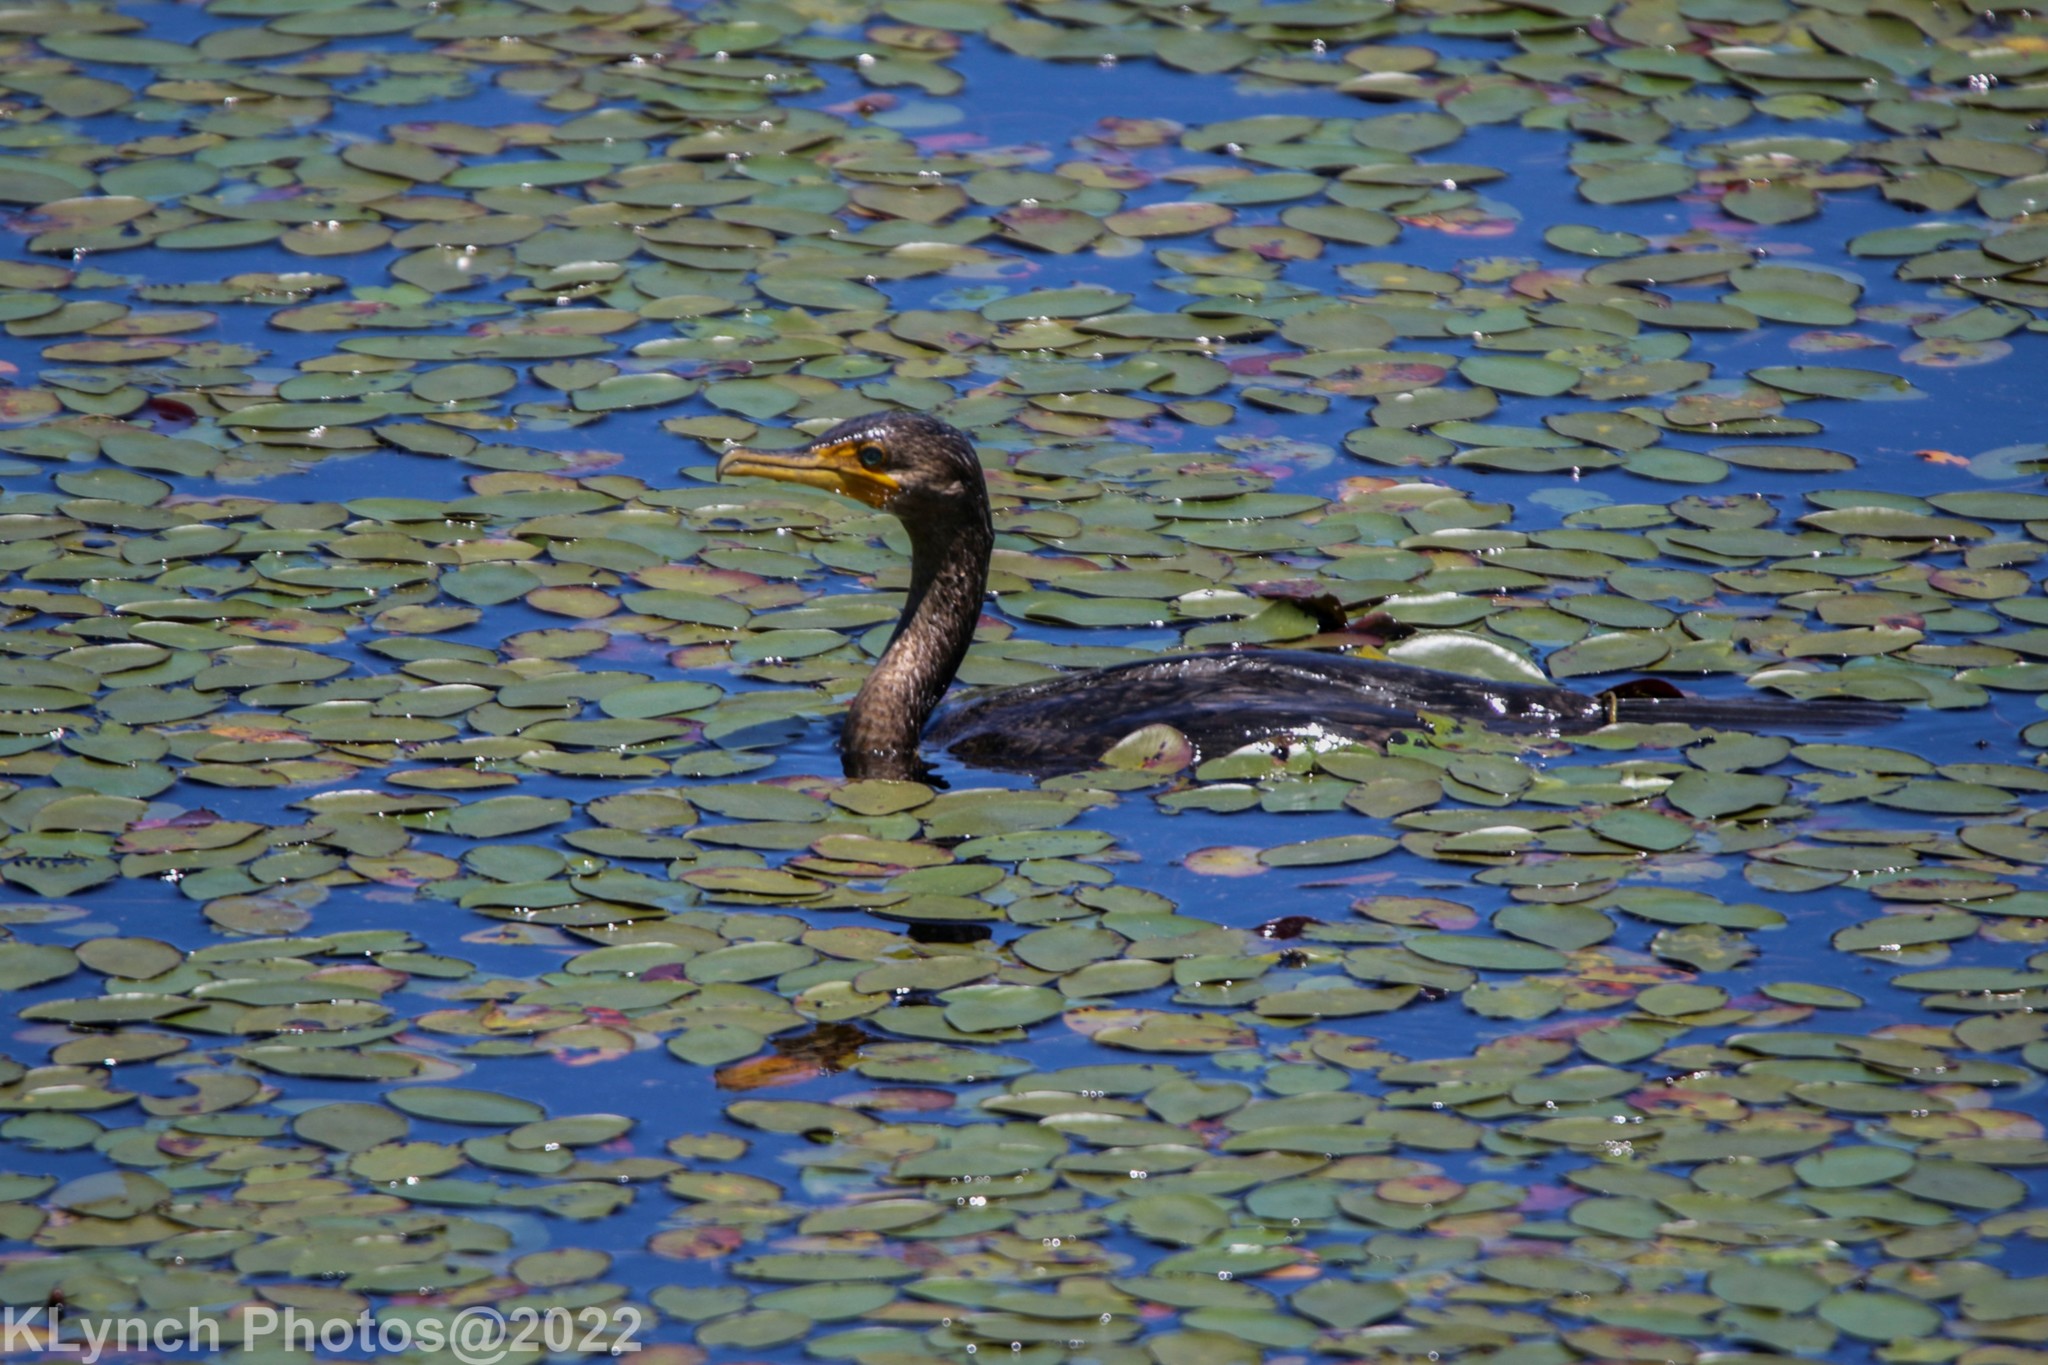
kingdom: Animalia
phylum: Chordata
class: Aves
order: Suliformes
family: Phalacrocoracidae
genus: Phalacrocorax
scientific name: Phalacrocorax auritus
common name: Double-crested cormorant
